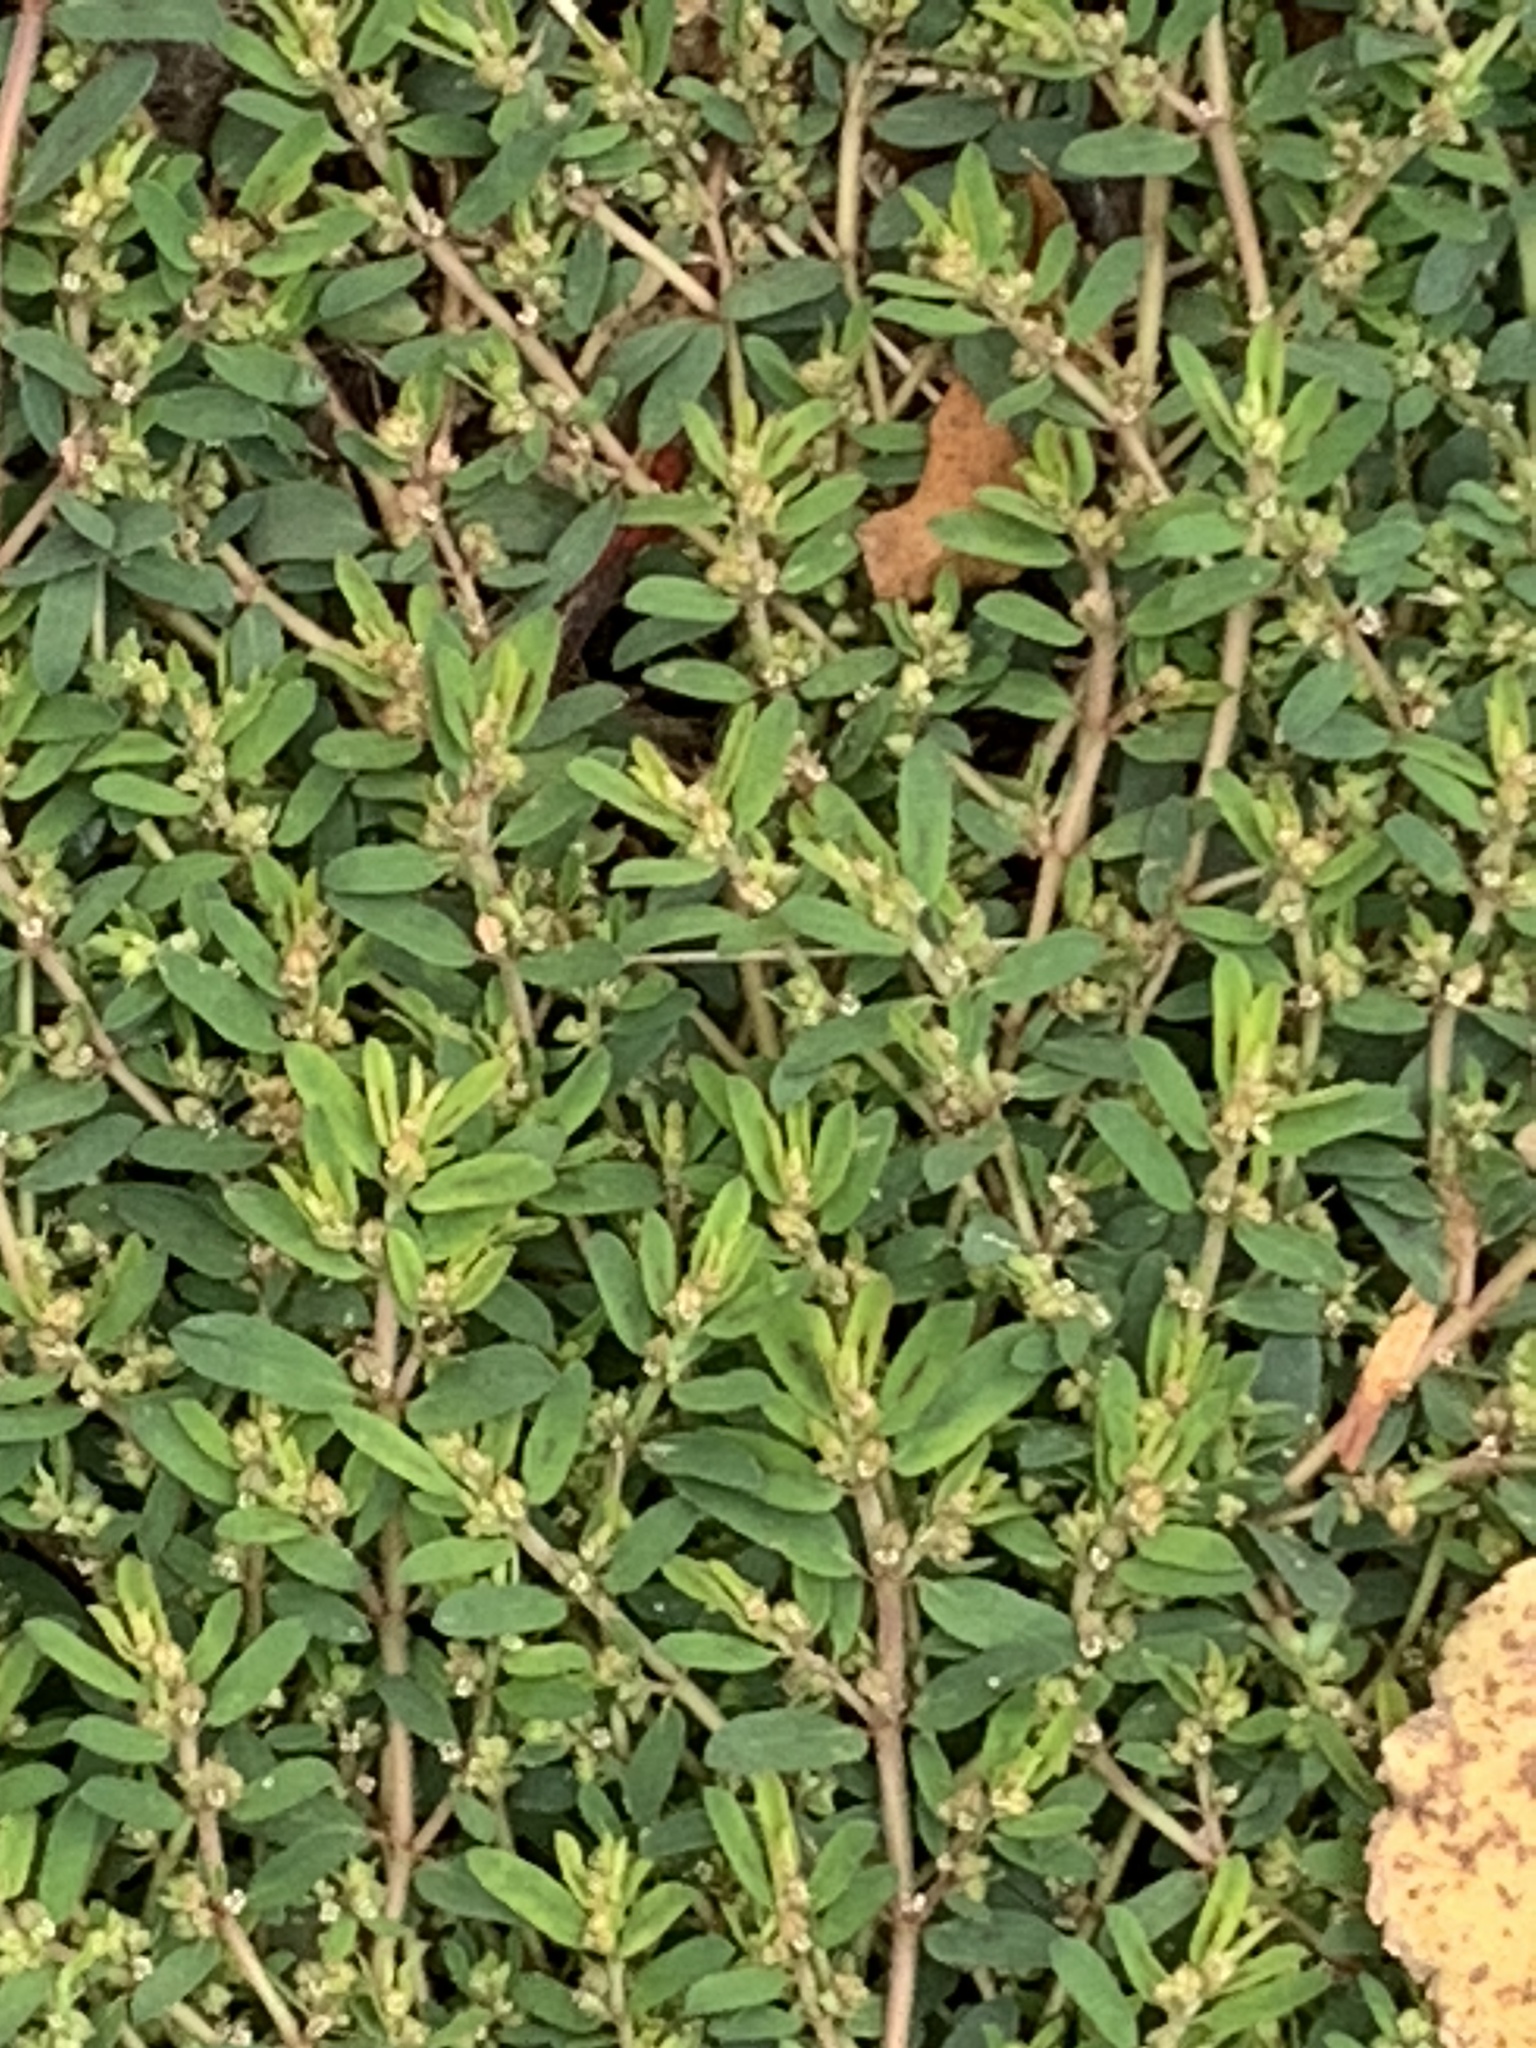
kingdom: Plantae
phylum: Tracheophyta
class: Magnoliopsida
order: Malpighiales
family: Euphorbiaceae
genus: Euphorbia
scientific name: Euphorbia maculata
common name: Spotted spurge
